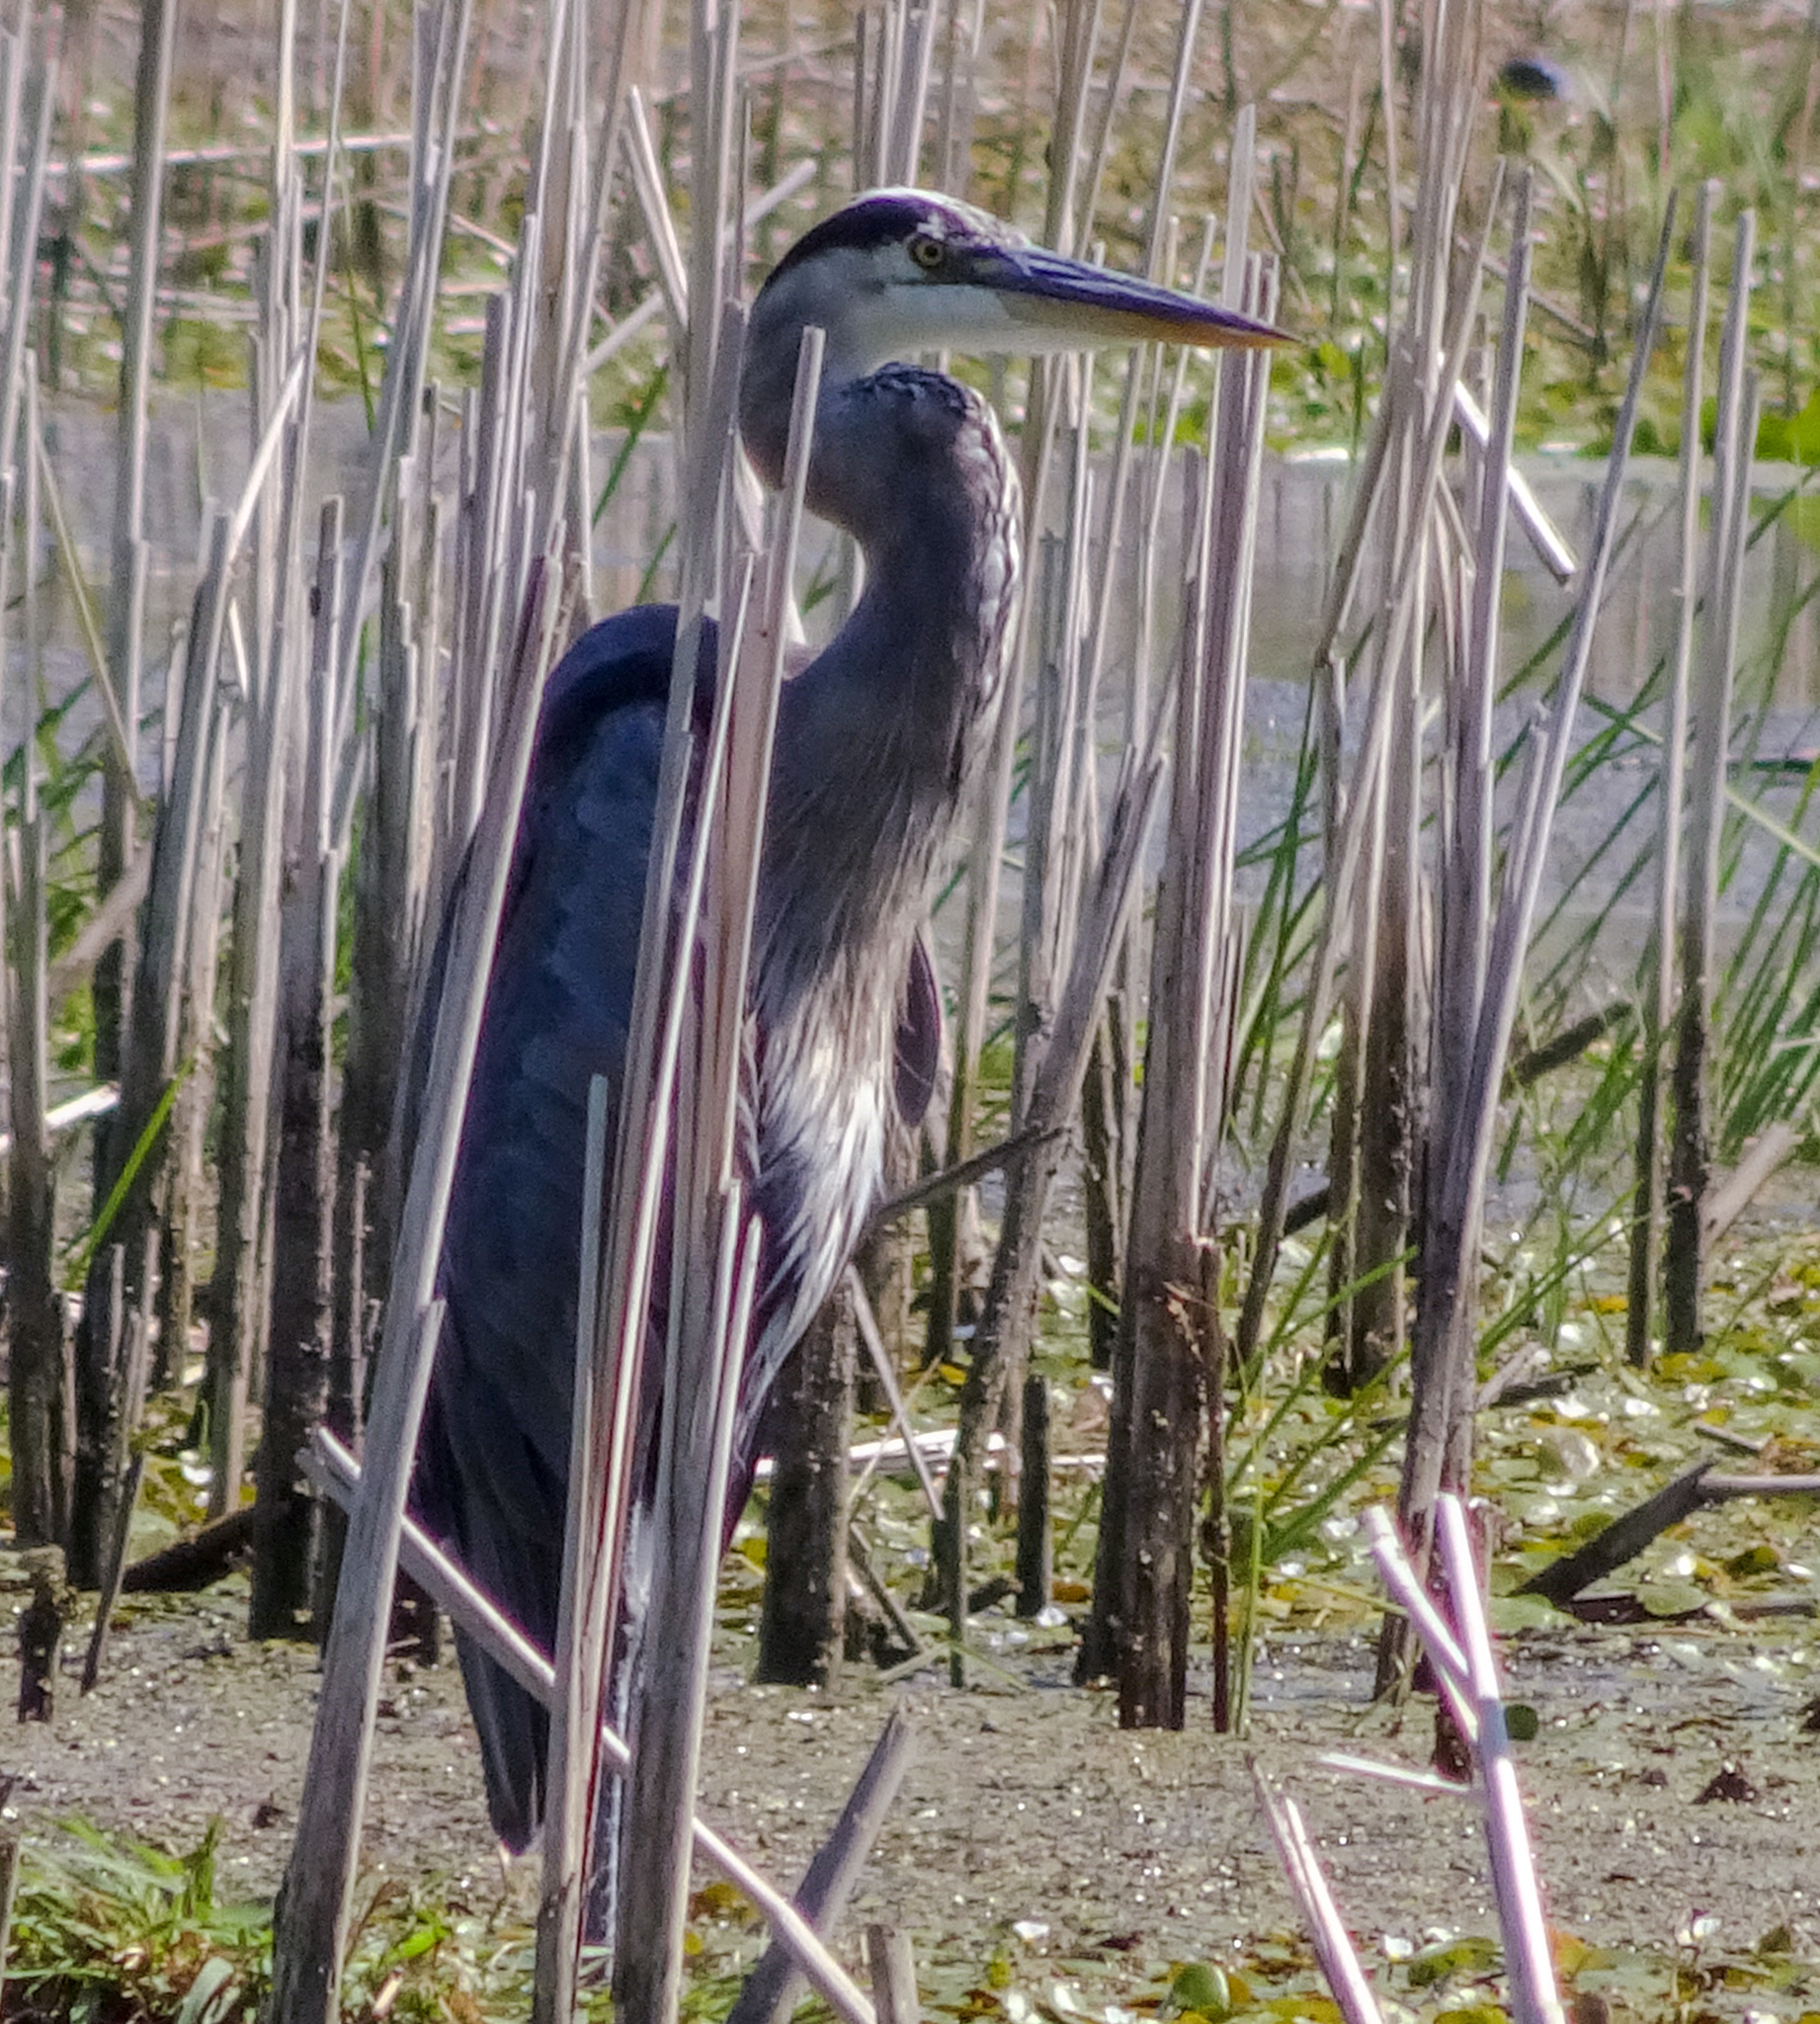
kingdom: Animalia
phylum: Chordata
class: Aves
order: Pelecaniformes
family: Ardeidae
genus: Ardea
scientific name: Ardea herodias
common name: Great blue heron
